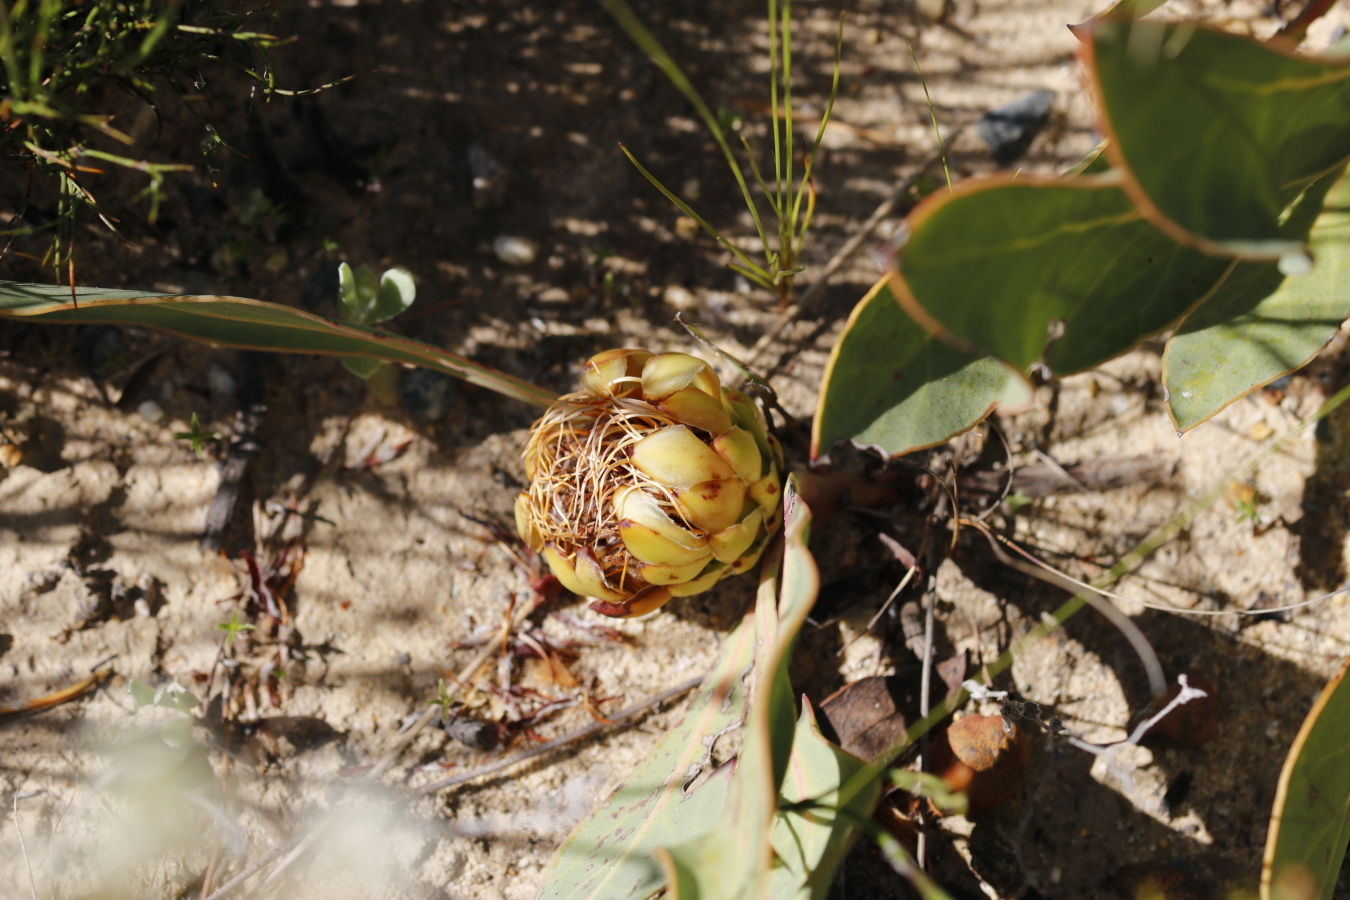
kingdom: Plantae
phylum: Tracheophyta
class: Magnoliopsida
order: Proteales
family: Proteaceae
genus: Protea
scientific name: Protea acaulos
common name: Common ground sugarbush
